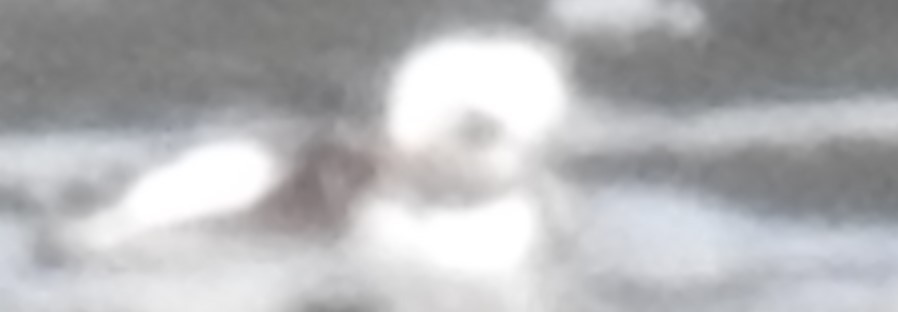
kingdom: Animalia
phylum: Chordata
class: Aves
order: Anseriformes
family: Anatidae
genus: Clangula
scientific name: Clangula hyemalis
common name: Long-tailed duck
